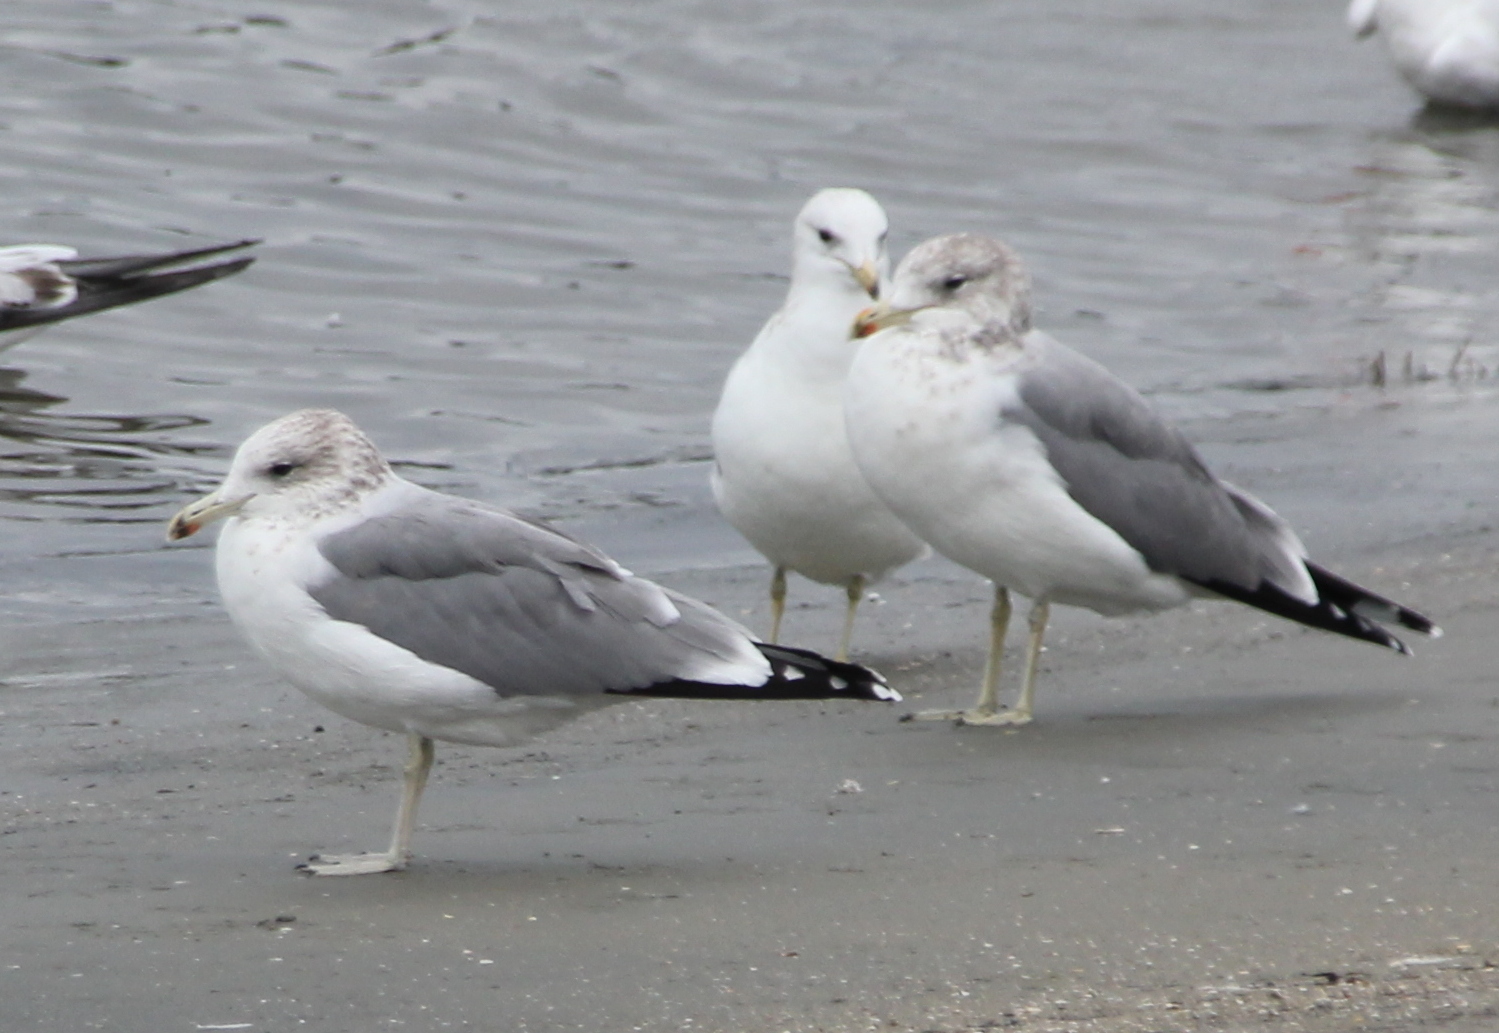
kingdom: Animalia
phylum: Chordata
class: Aves
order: Charadriiformes
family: Laridae
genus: Larus
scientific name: Larus californicus
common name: California gull
